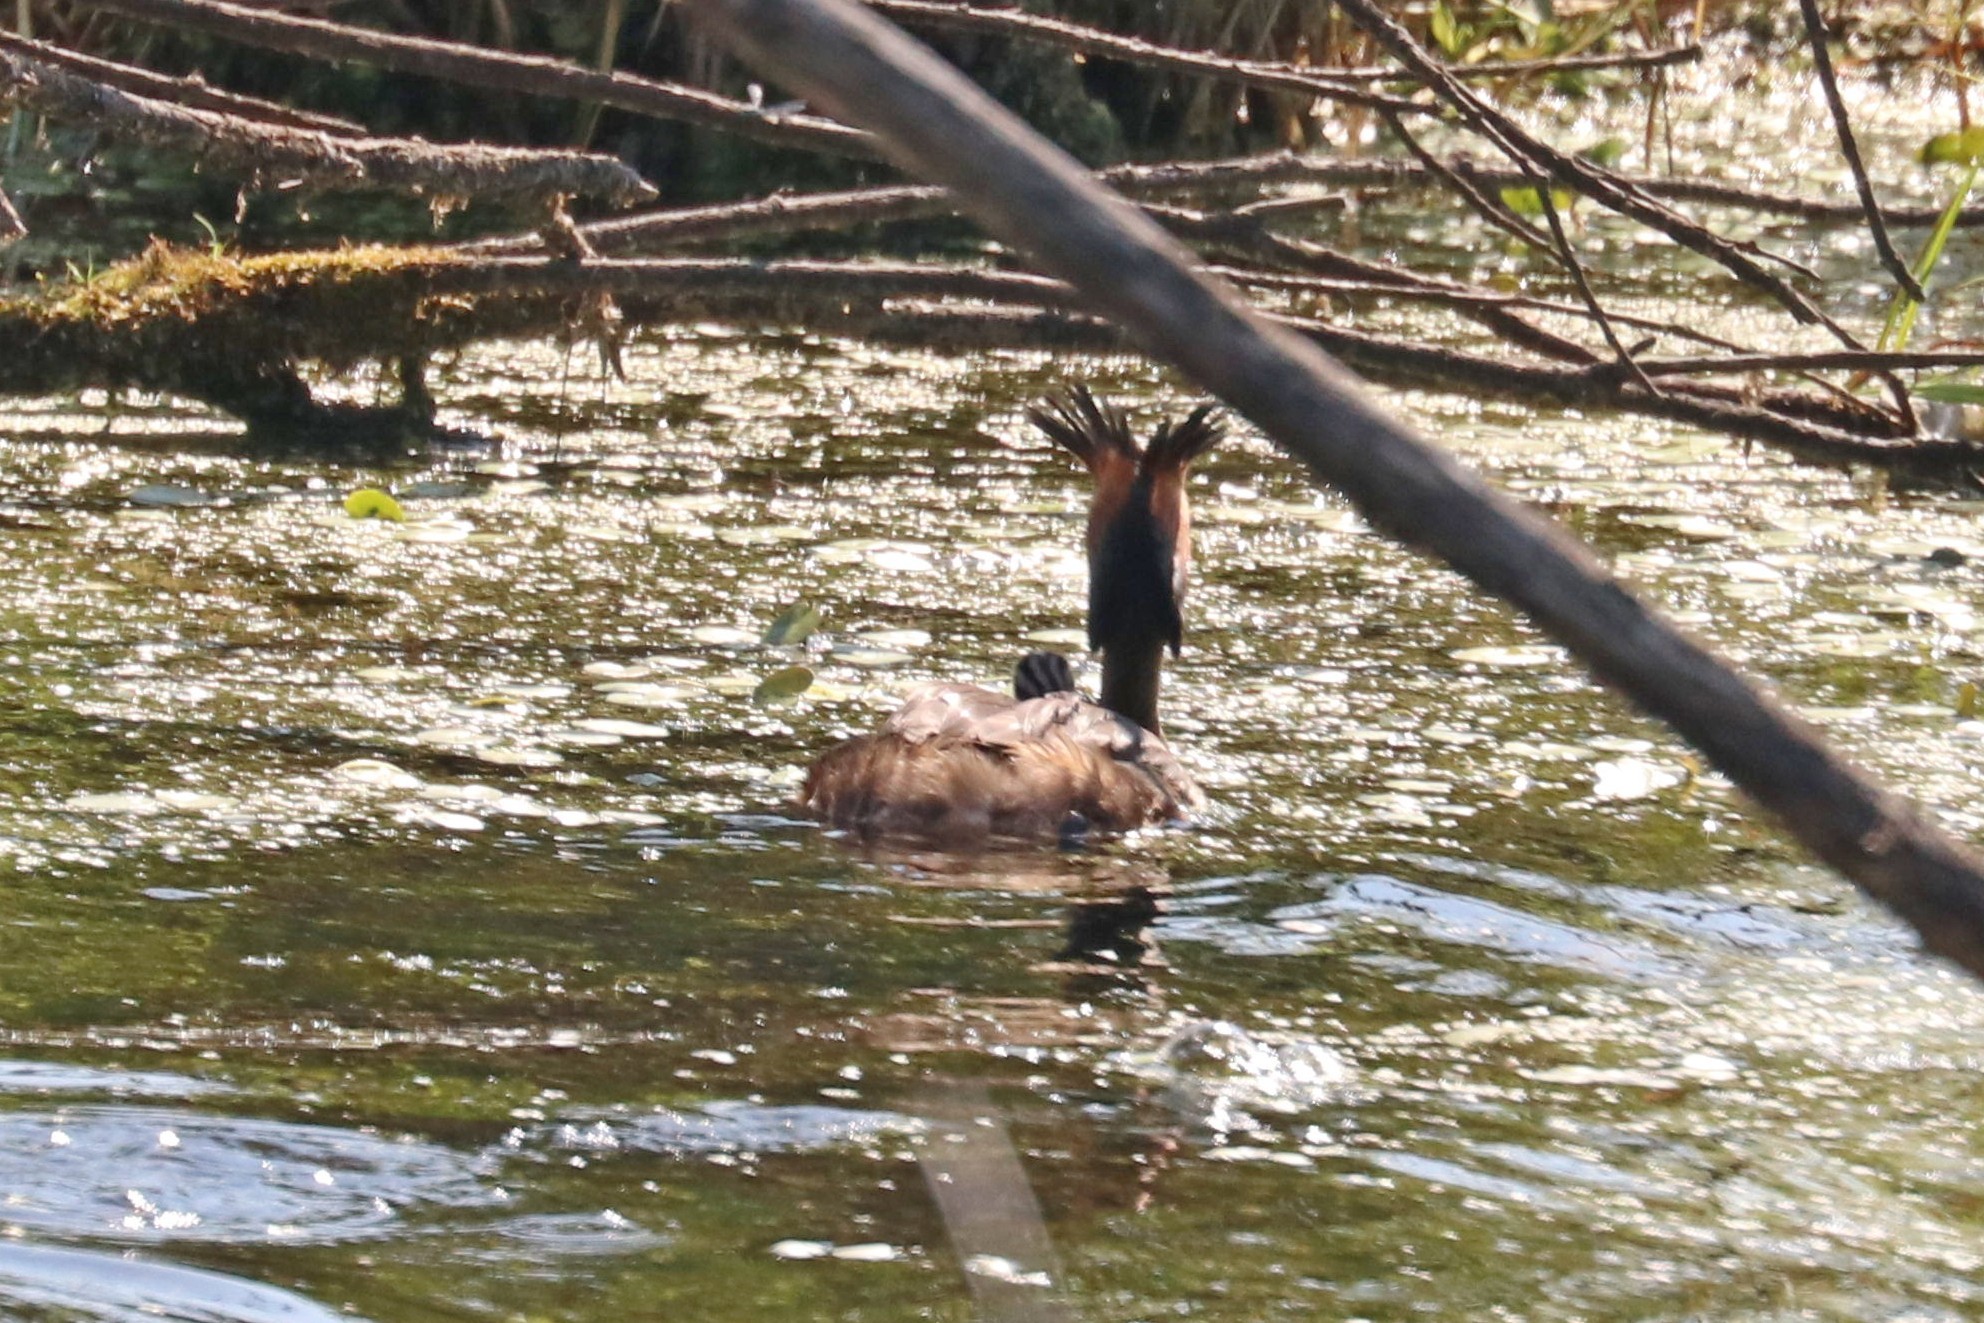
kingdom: Animalia
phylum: Chordata
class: Aves
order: Podicipediformes
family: Podicipedidae
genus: Podiceps
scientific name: Podiceps cristatus
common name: Great crested grebe
